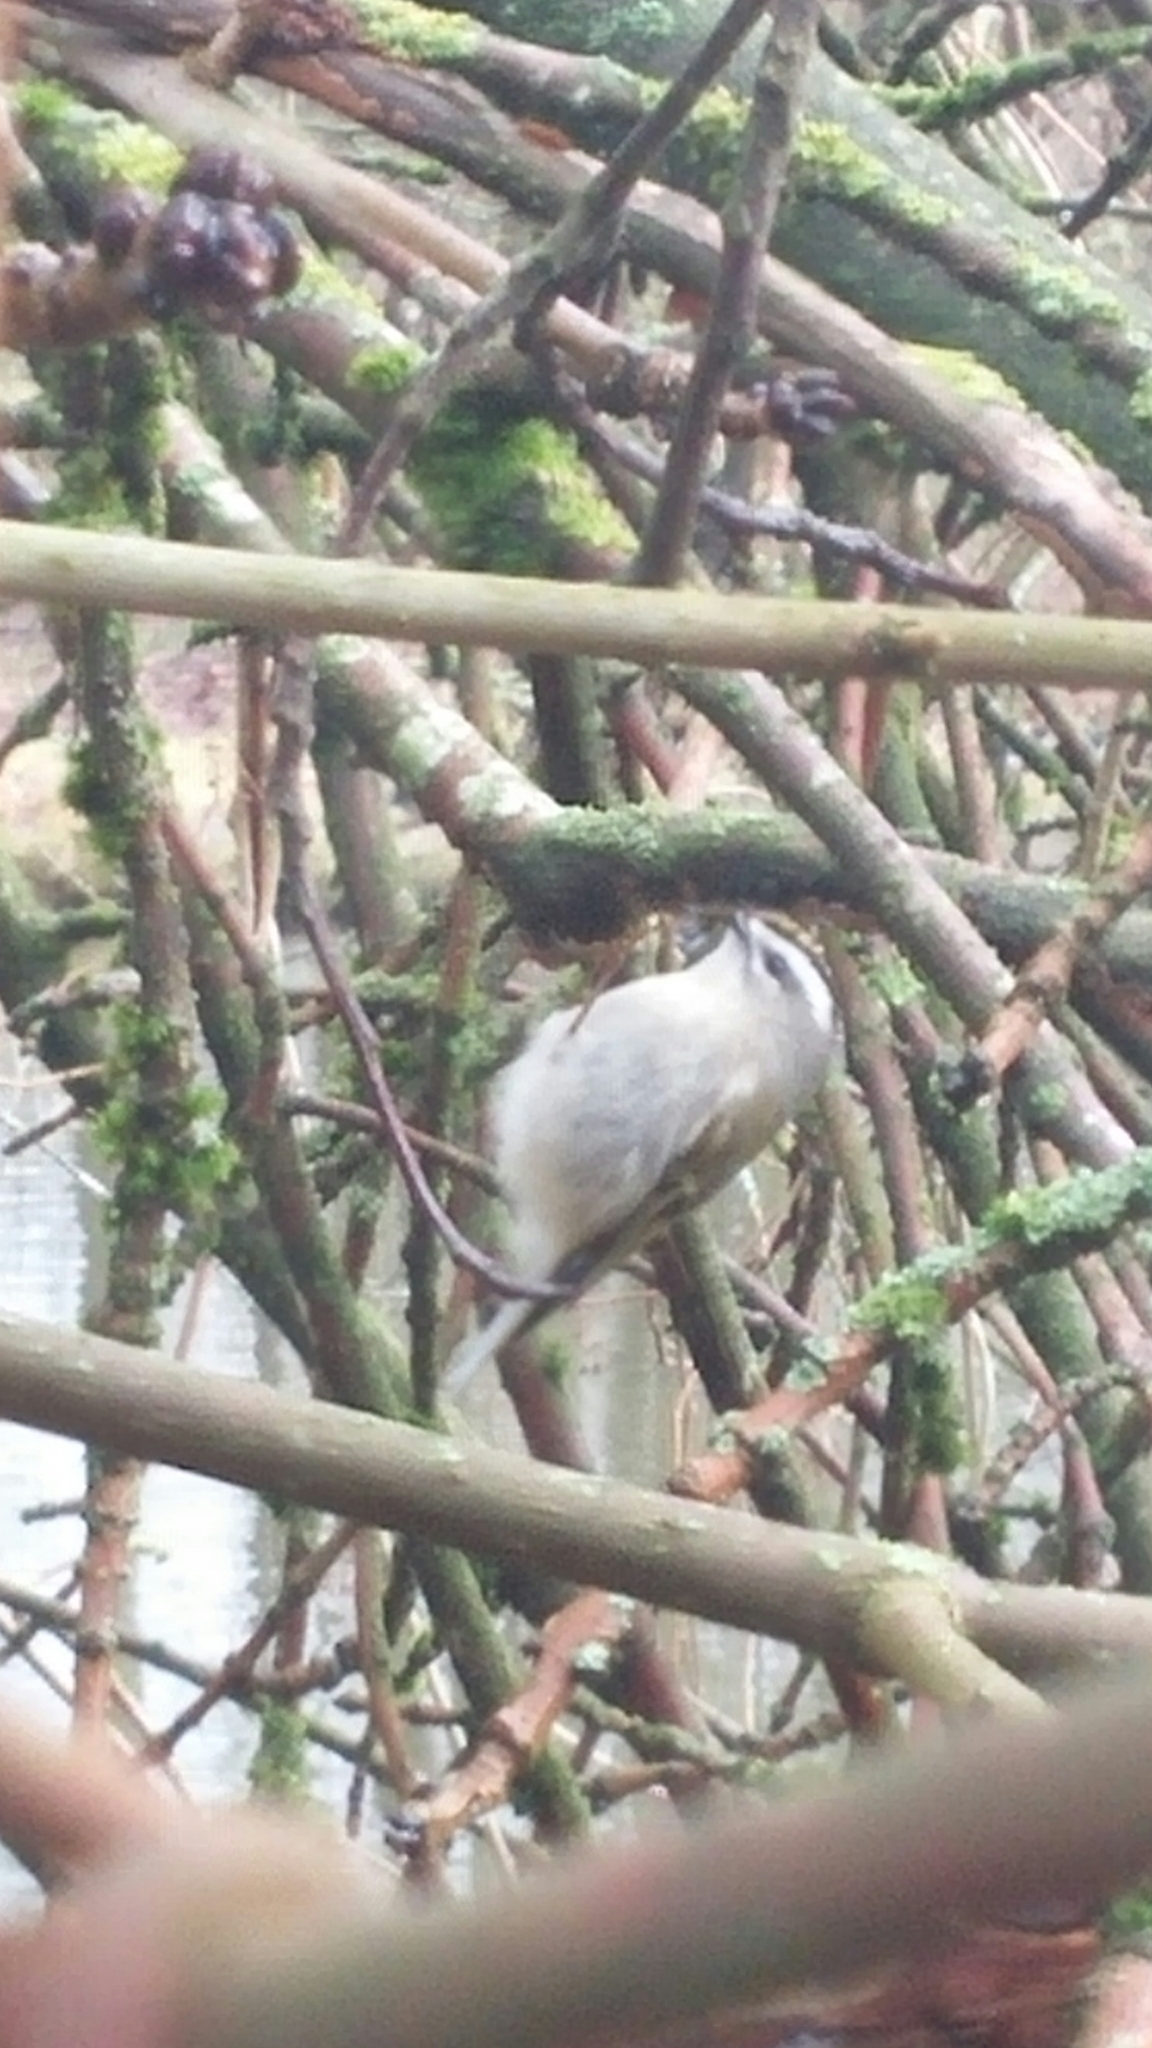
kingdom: Animalia
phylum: Chordata
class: Aves
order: Passeriformes
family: Regulidae
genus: Regulus
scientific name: Regulus satrapa
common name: Golden-crowned kinglet
